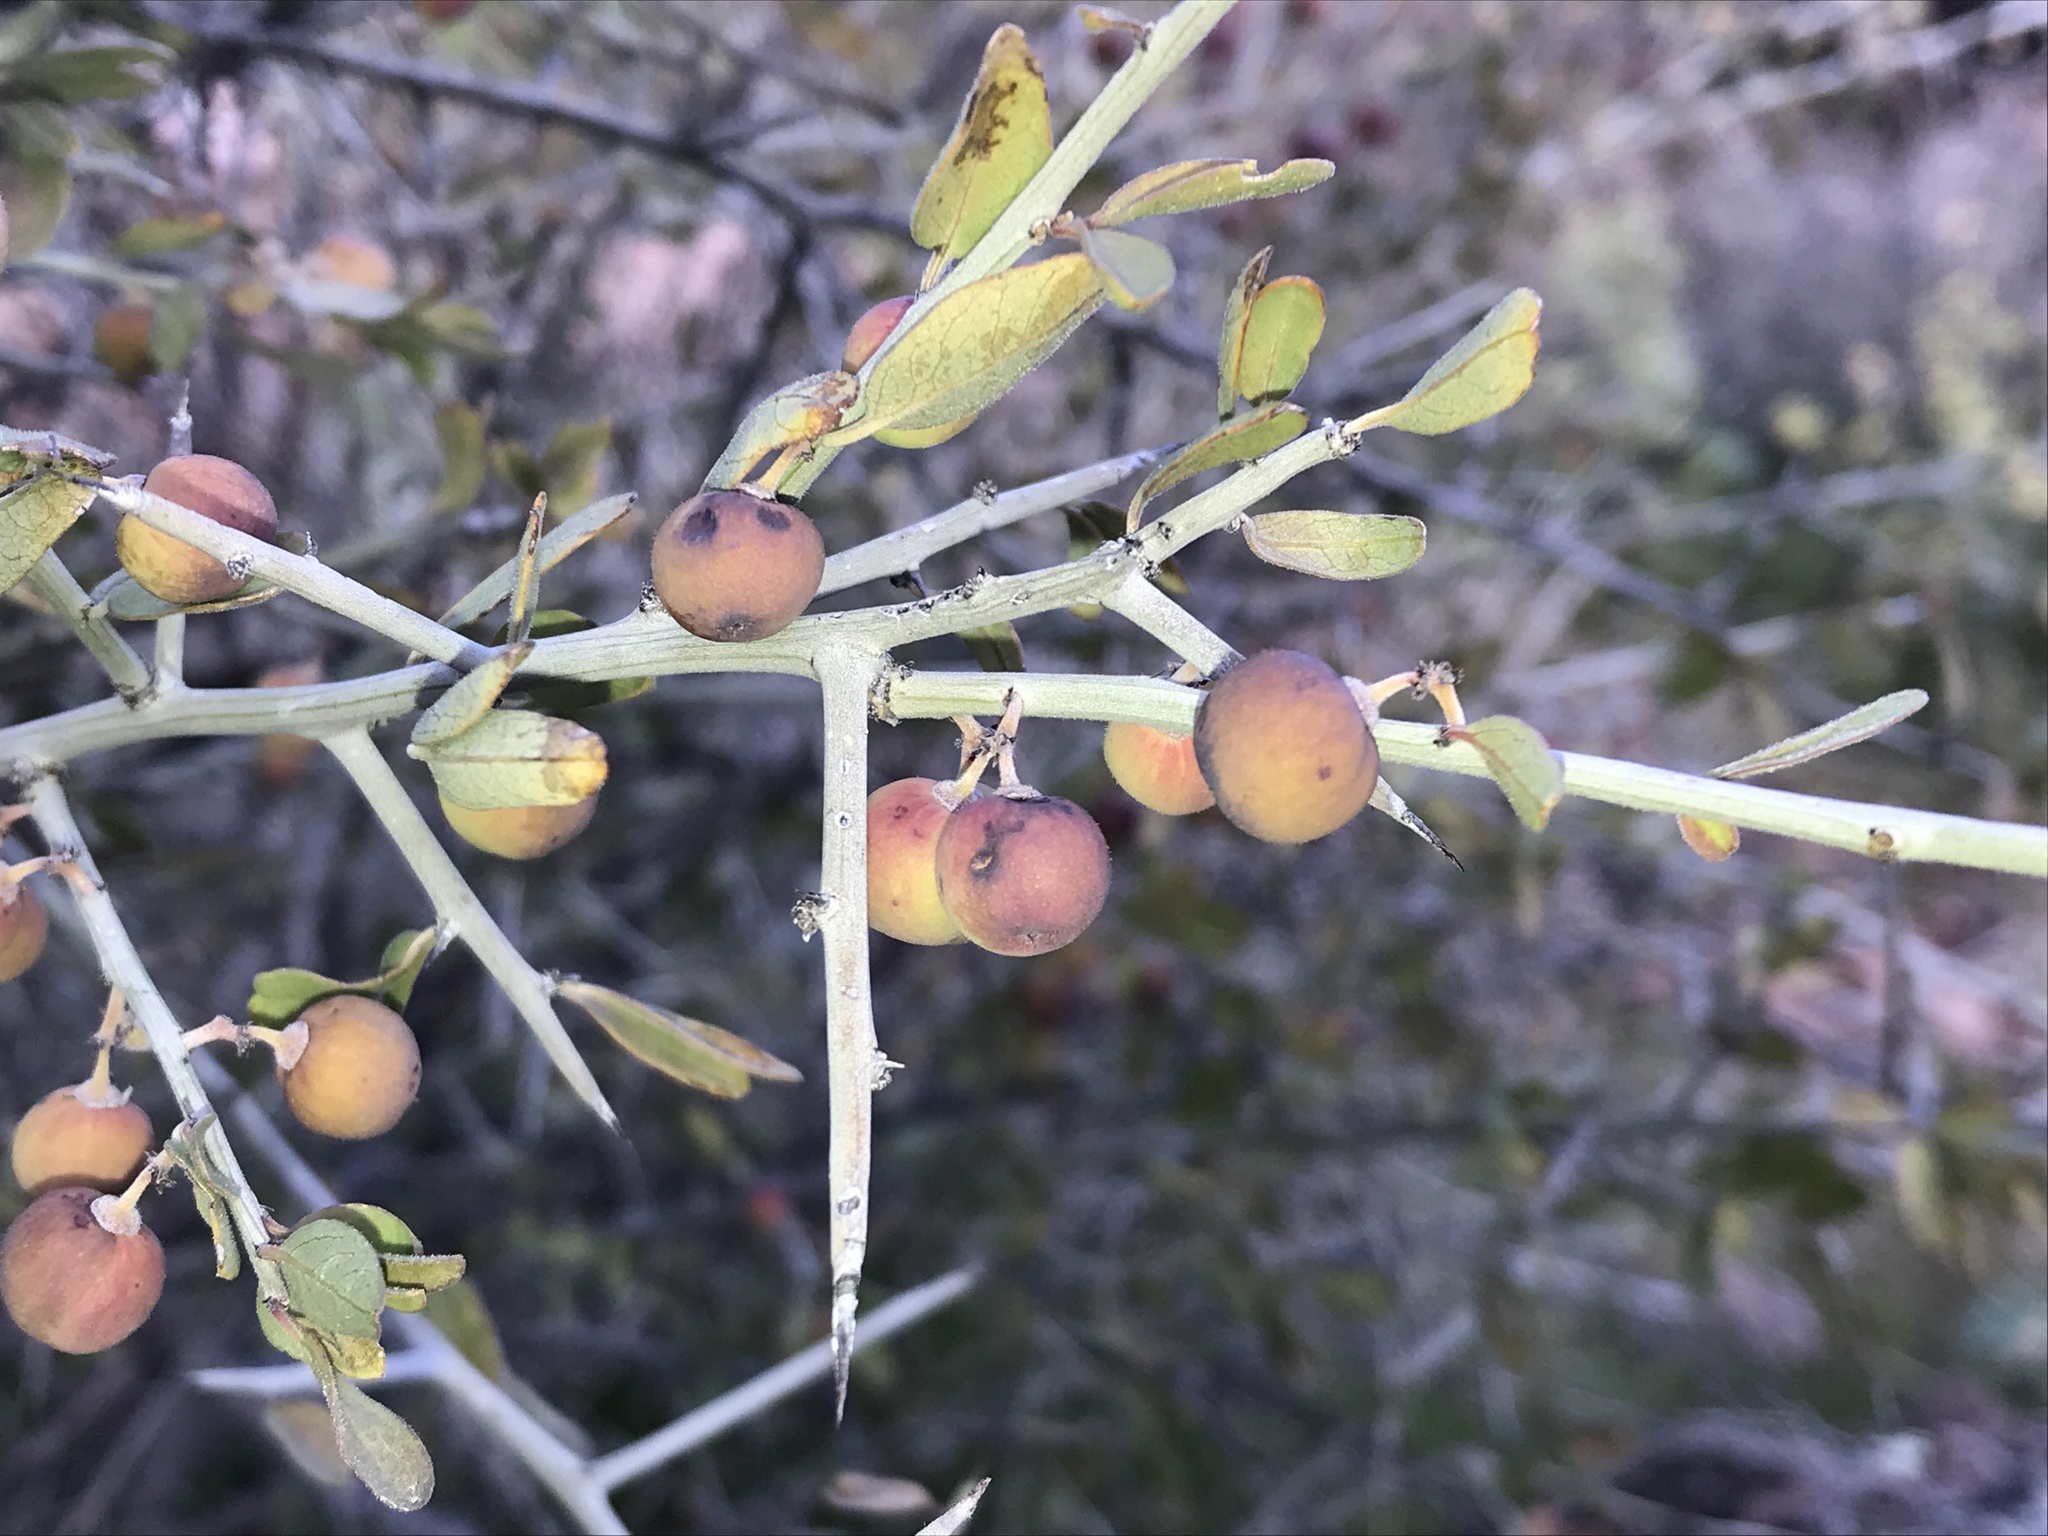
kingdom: Plantae
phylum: Tracheophyta
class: Magnoliopsida
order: Rosales
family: Rhamnaceae
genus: Sarcomphalus
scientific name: Sarcomphalus obtusifolius
